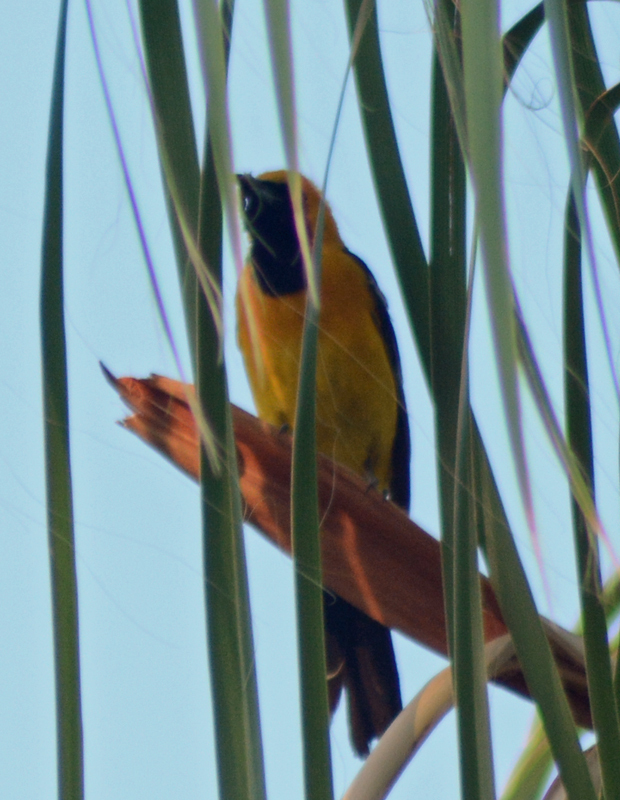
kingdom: Animalia
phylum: Chordata
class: Aves
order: Passeriformes
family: Icteridae
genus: Icterus
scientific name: Icterus cucullatus
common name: Hooded oriole
